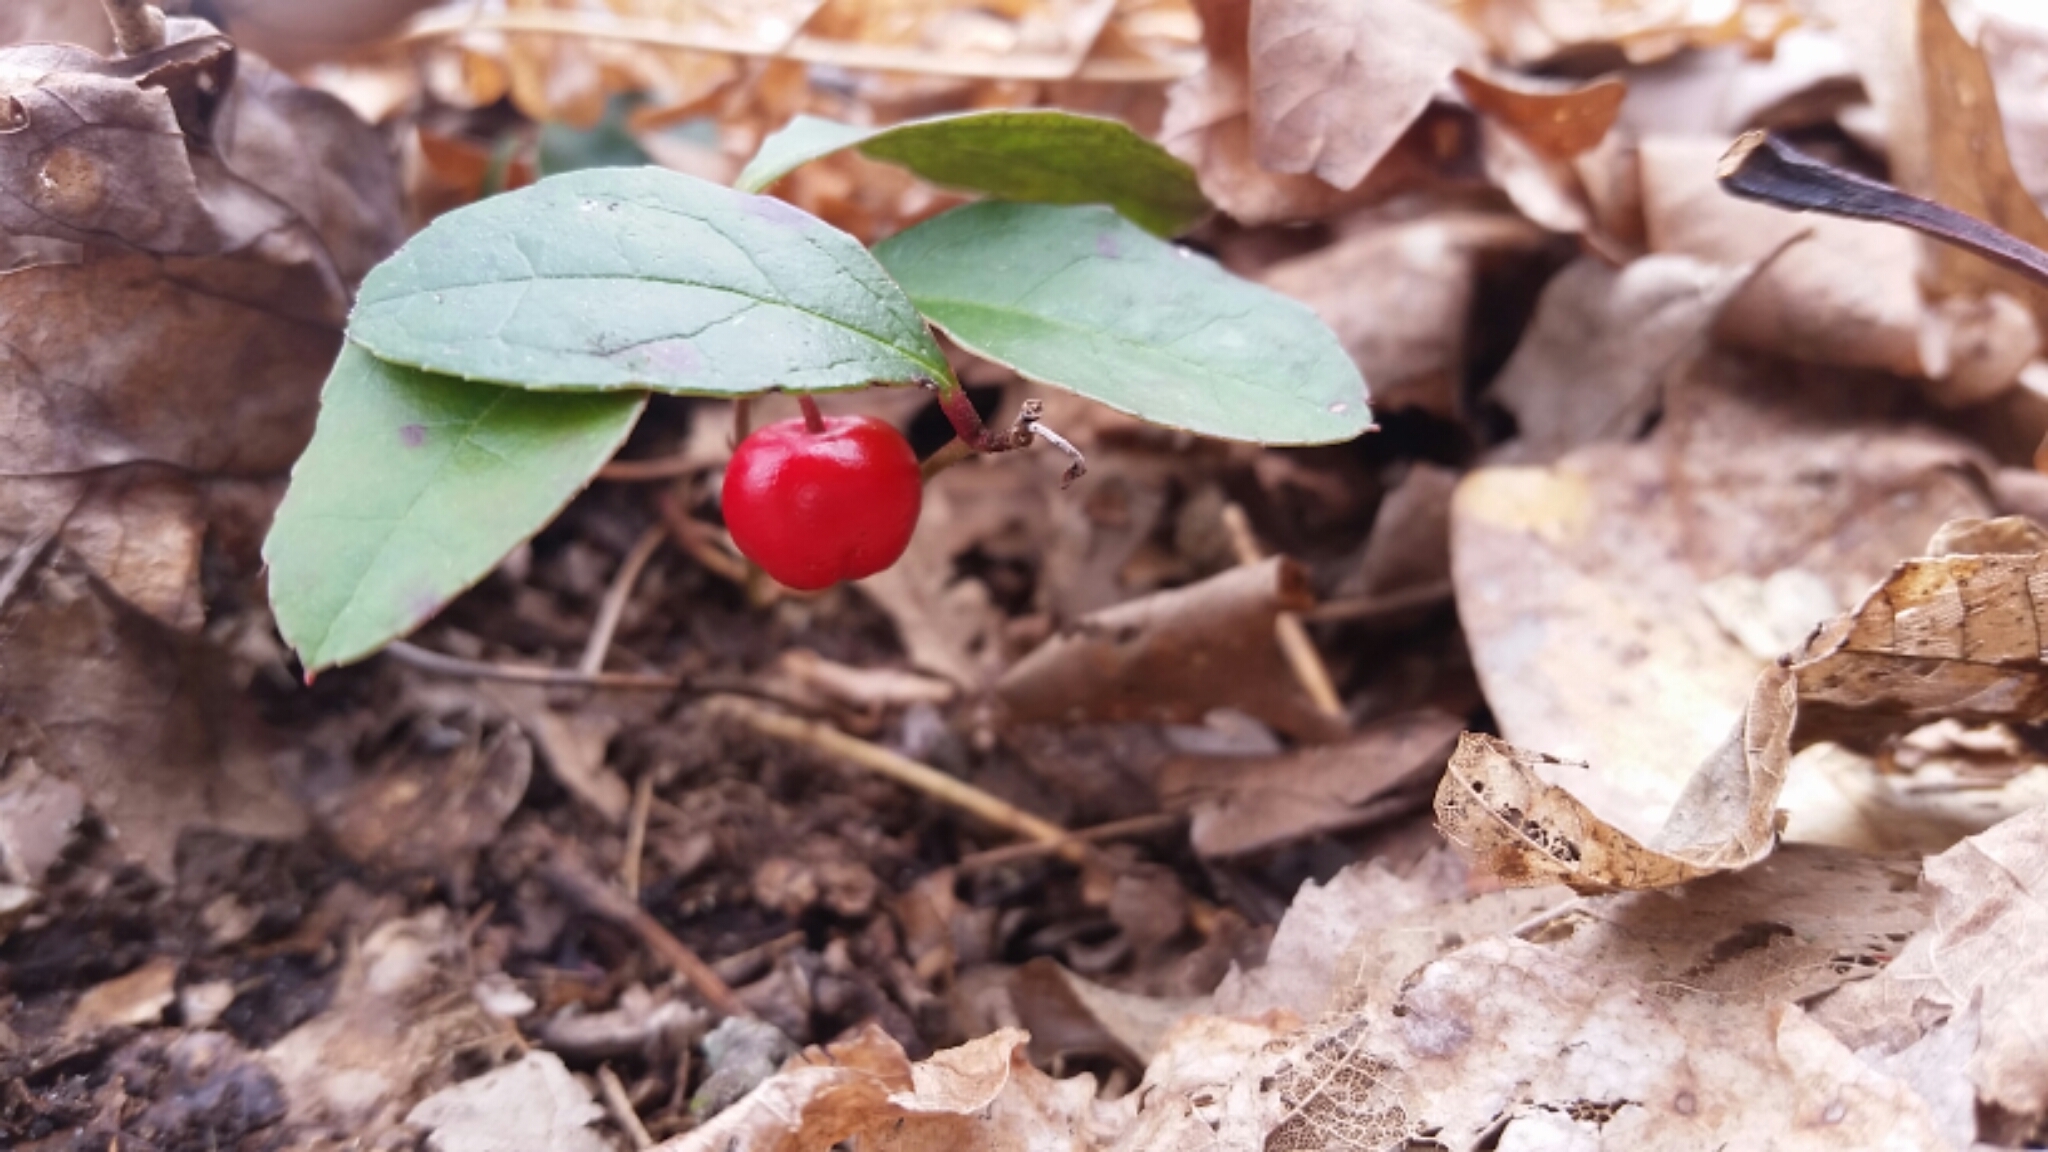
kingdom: Plantae
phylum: Tracheophyta
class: Magnoliopsida
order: Ericales
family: Ericaceae
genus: Gaultheria
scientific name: Gaultheria procumbens
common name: Checkerberry
